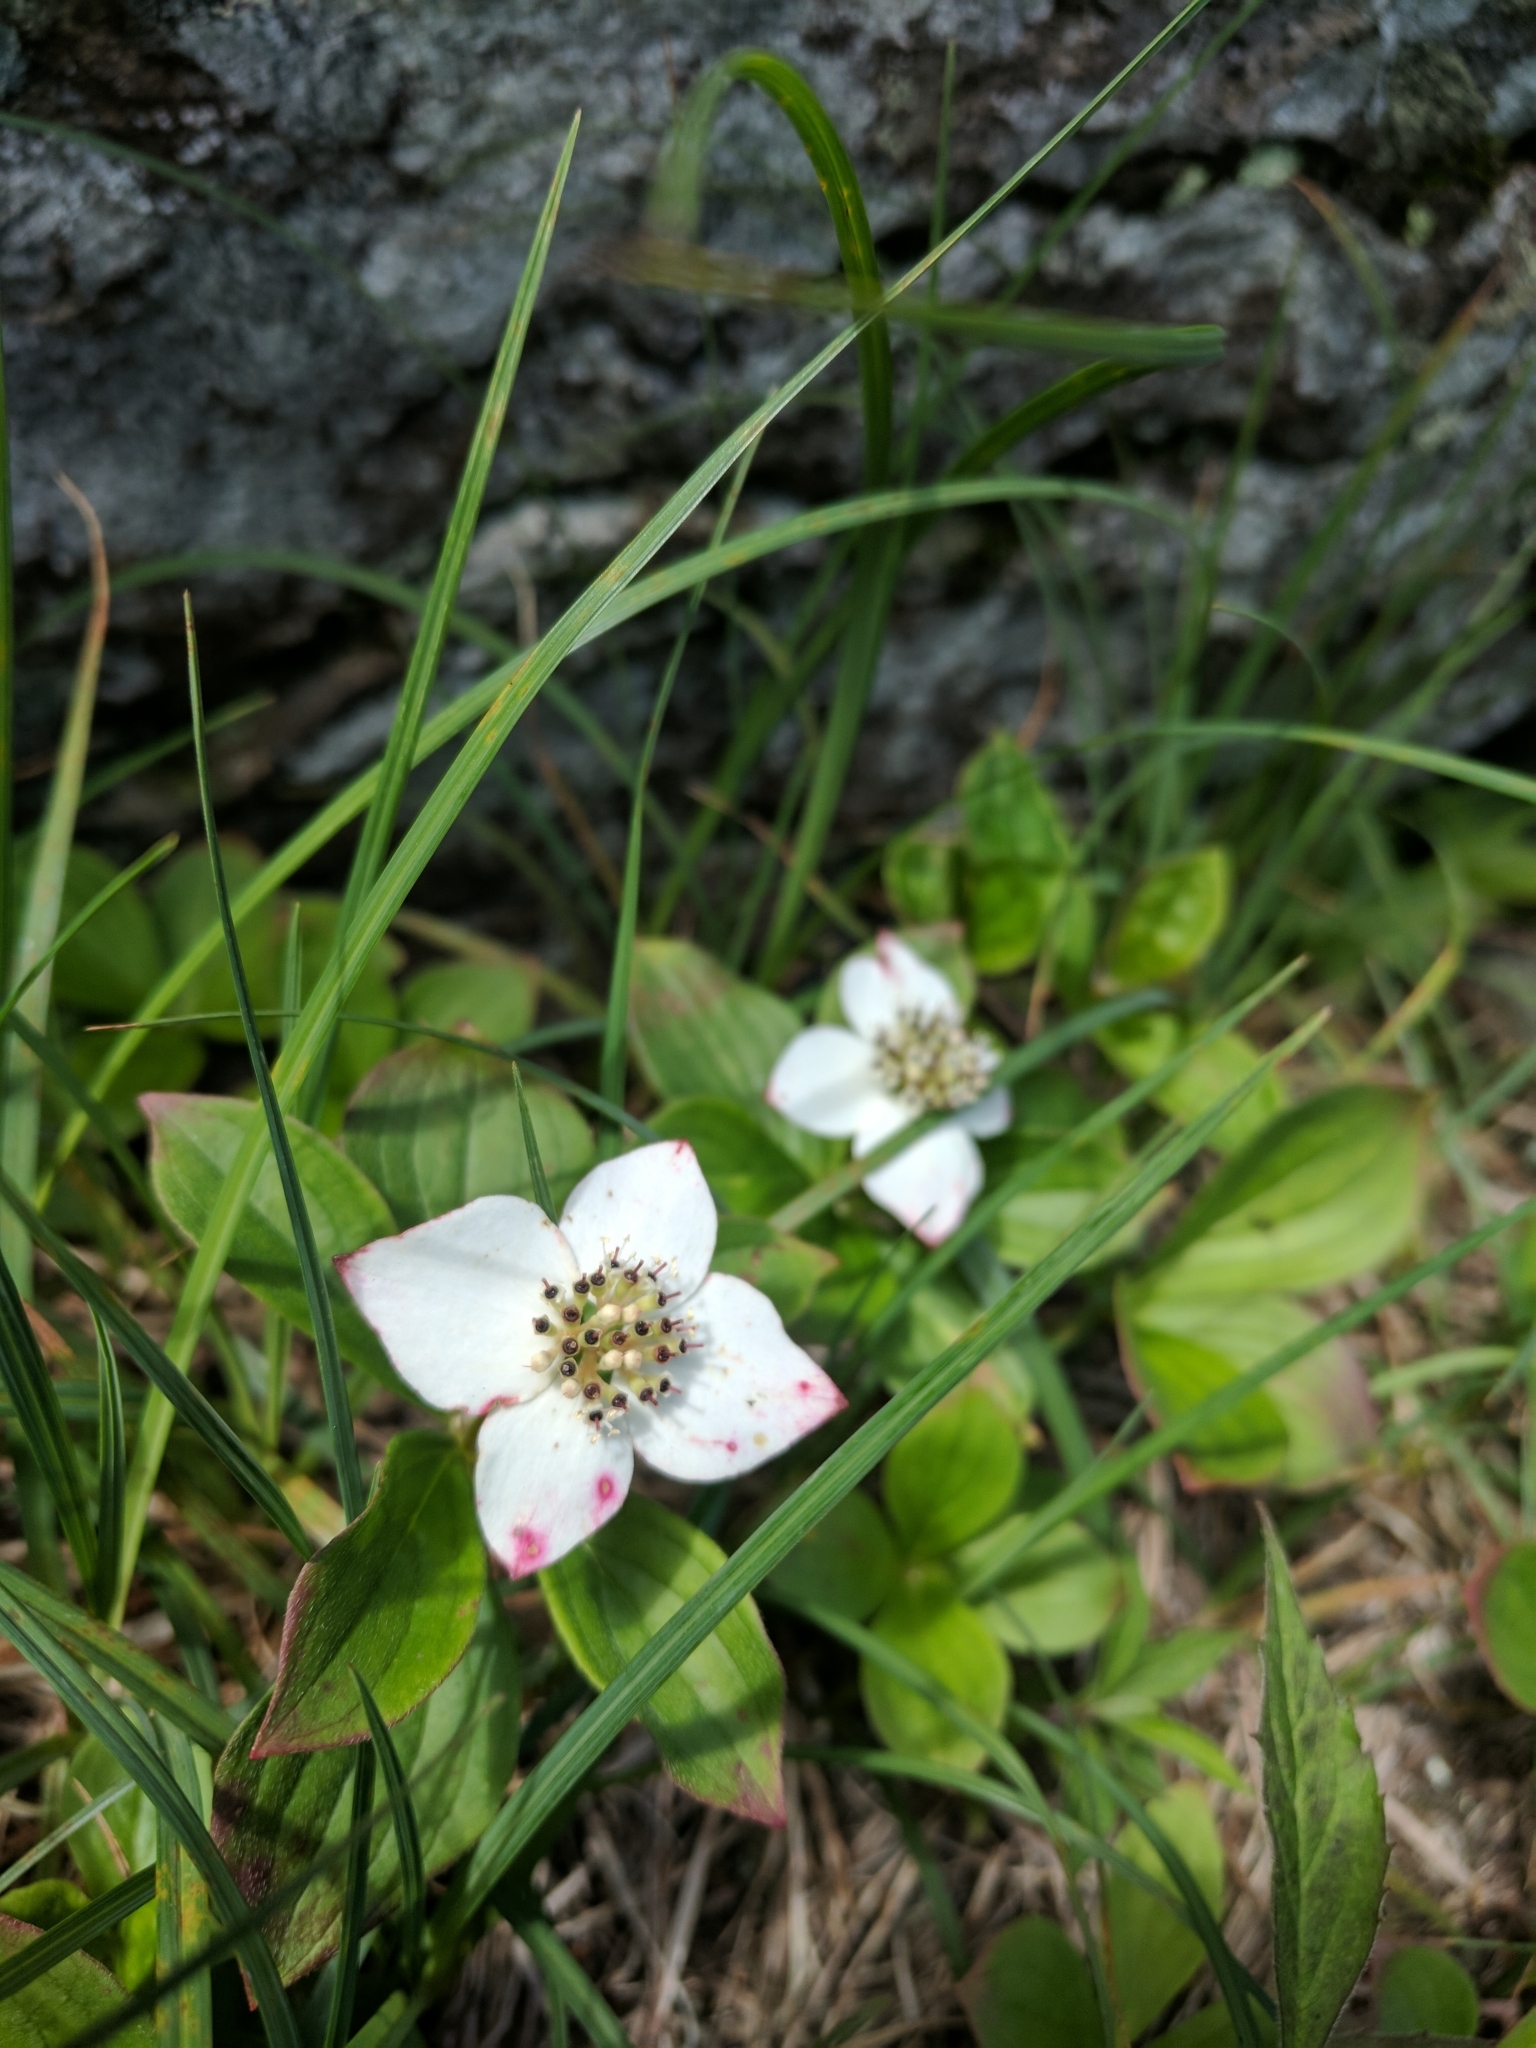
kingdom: Plantae
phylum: Tracheophyta
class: Magnoliopsida
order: Cornales
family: Cornaceae
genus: Cornus
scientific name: Cornus canadensis
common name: Creeping dogwood
